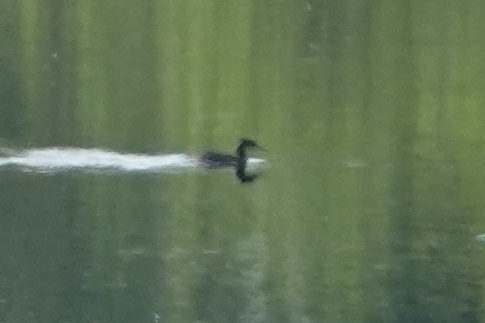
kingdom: Animalia
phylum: Chordata
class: Aves
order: Podicipediformes
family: Podicipedidae
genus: Podiceps
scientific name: Podiceps grisegena
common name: Red-necked grebe
